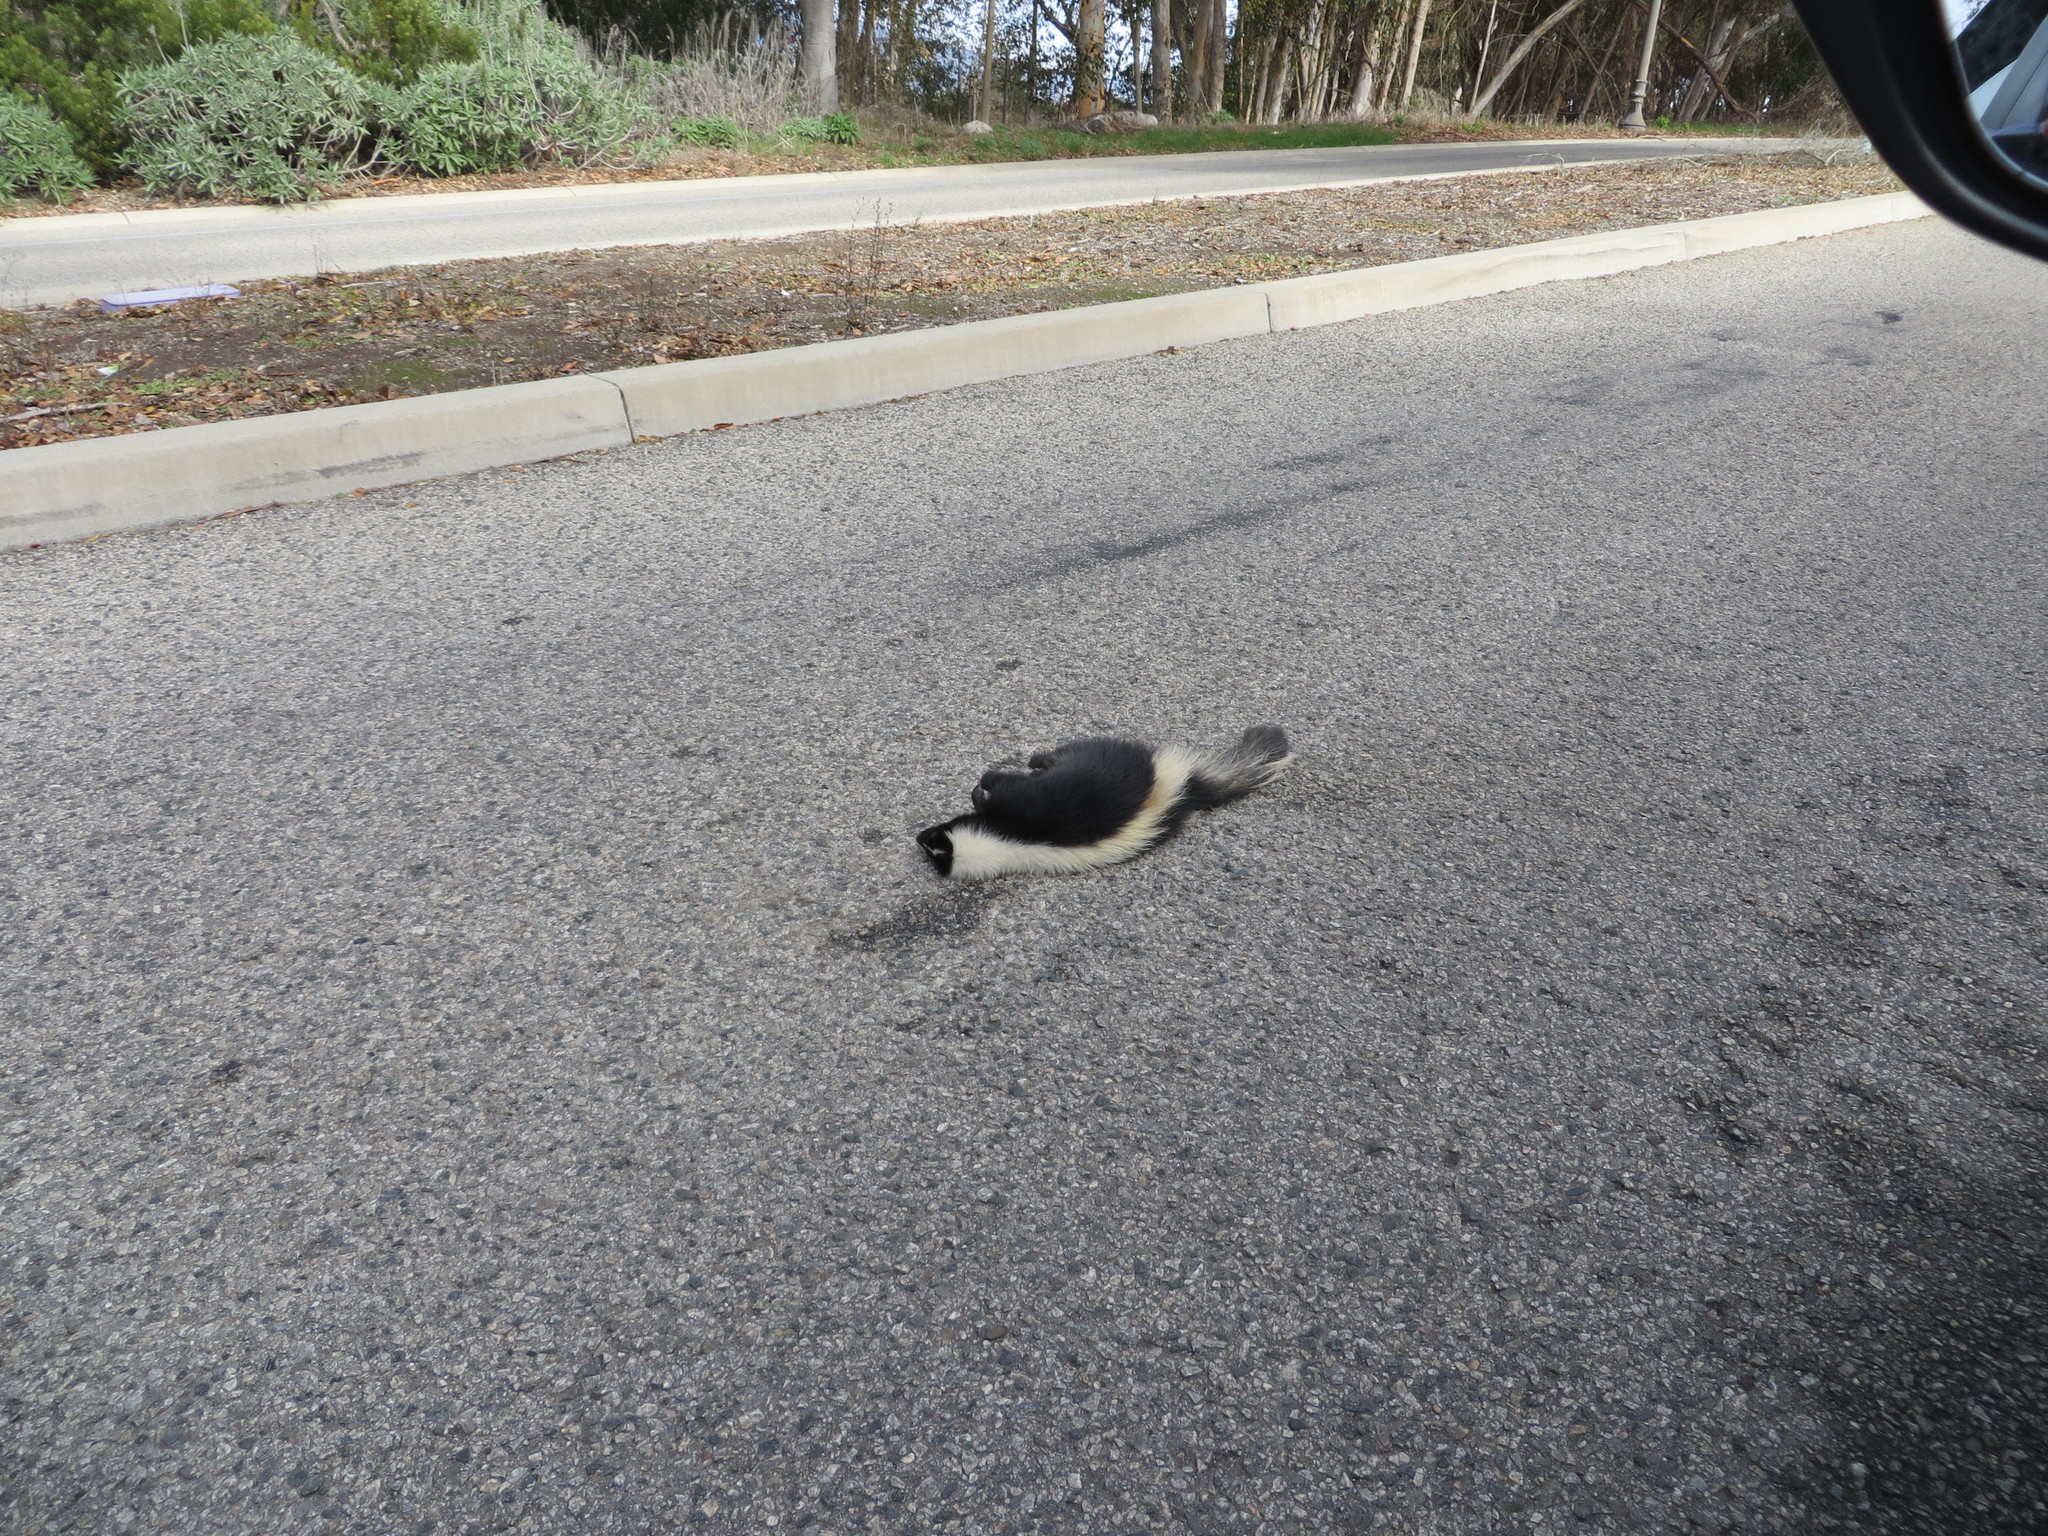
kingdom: Animalia
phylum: Chordata
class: Mammalia
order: Carnivora
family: Mephitidae
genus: Mephitis
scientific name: Mephitis mephitis
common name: Striped skunk
